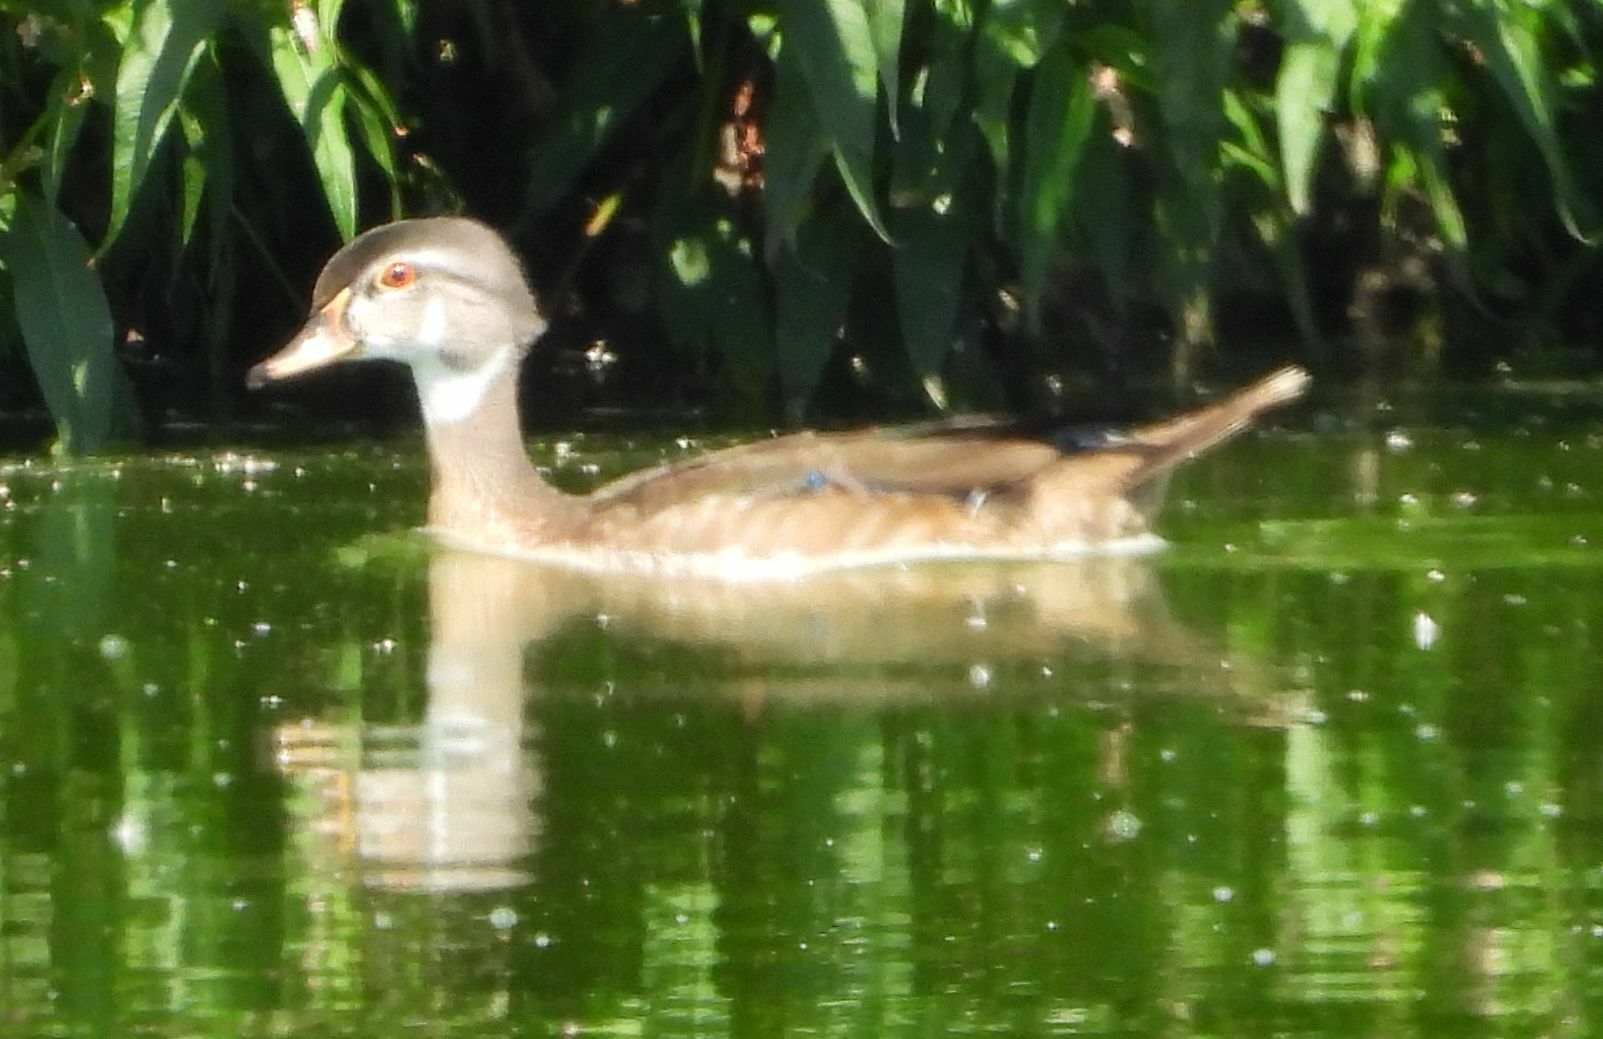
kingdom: Animalia
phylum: Chordata
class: Aves
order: Anseriformes
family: Anatidae
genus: Aix
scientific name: Aix sponsa
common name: Wood duck
